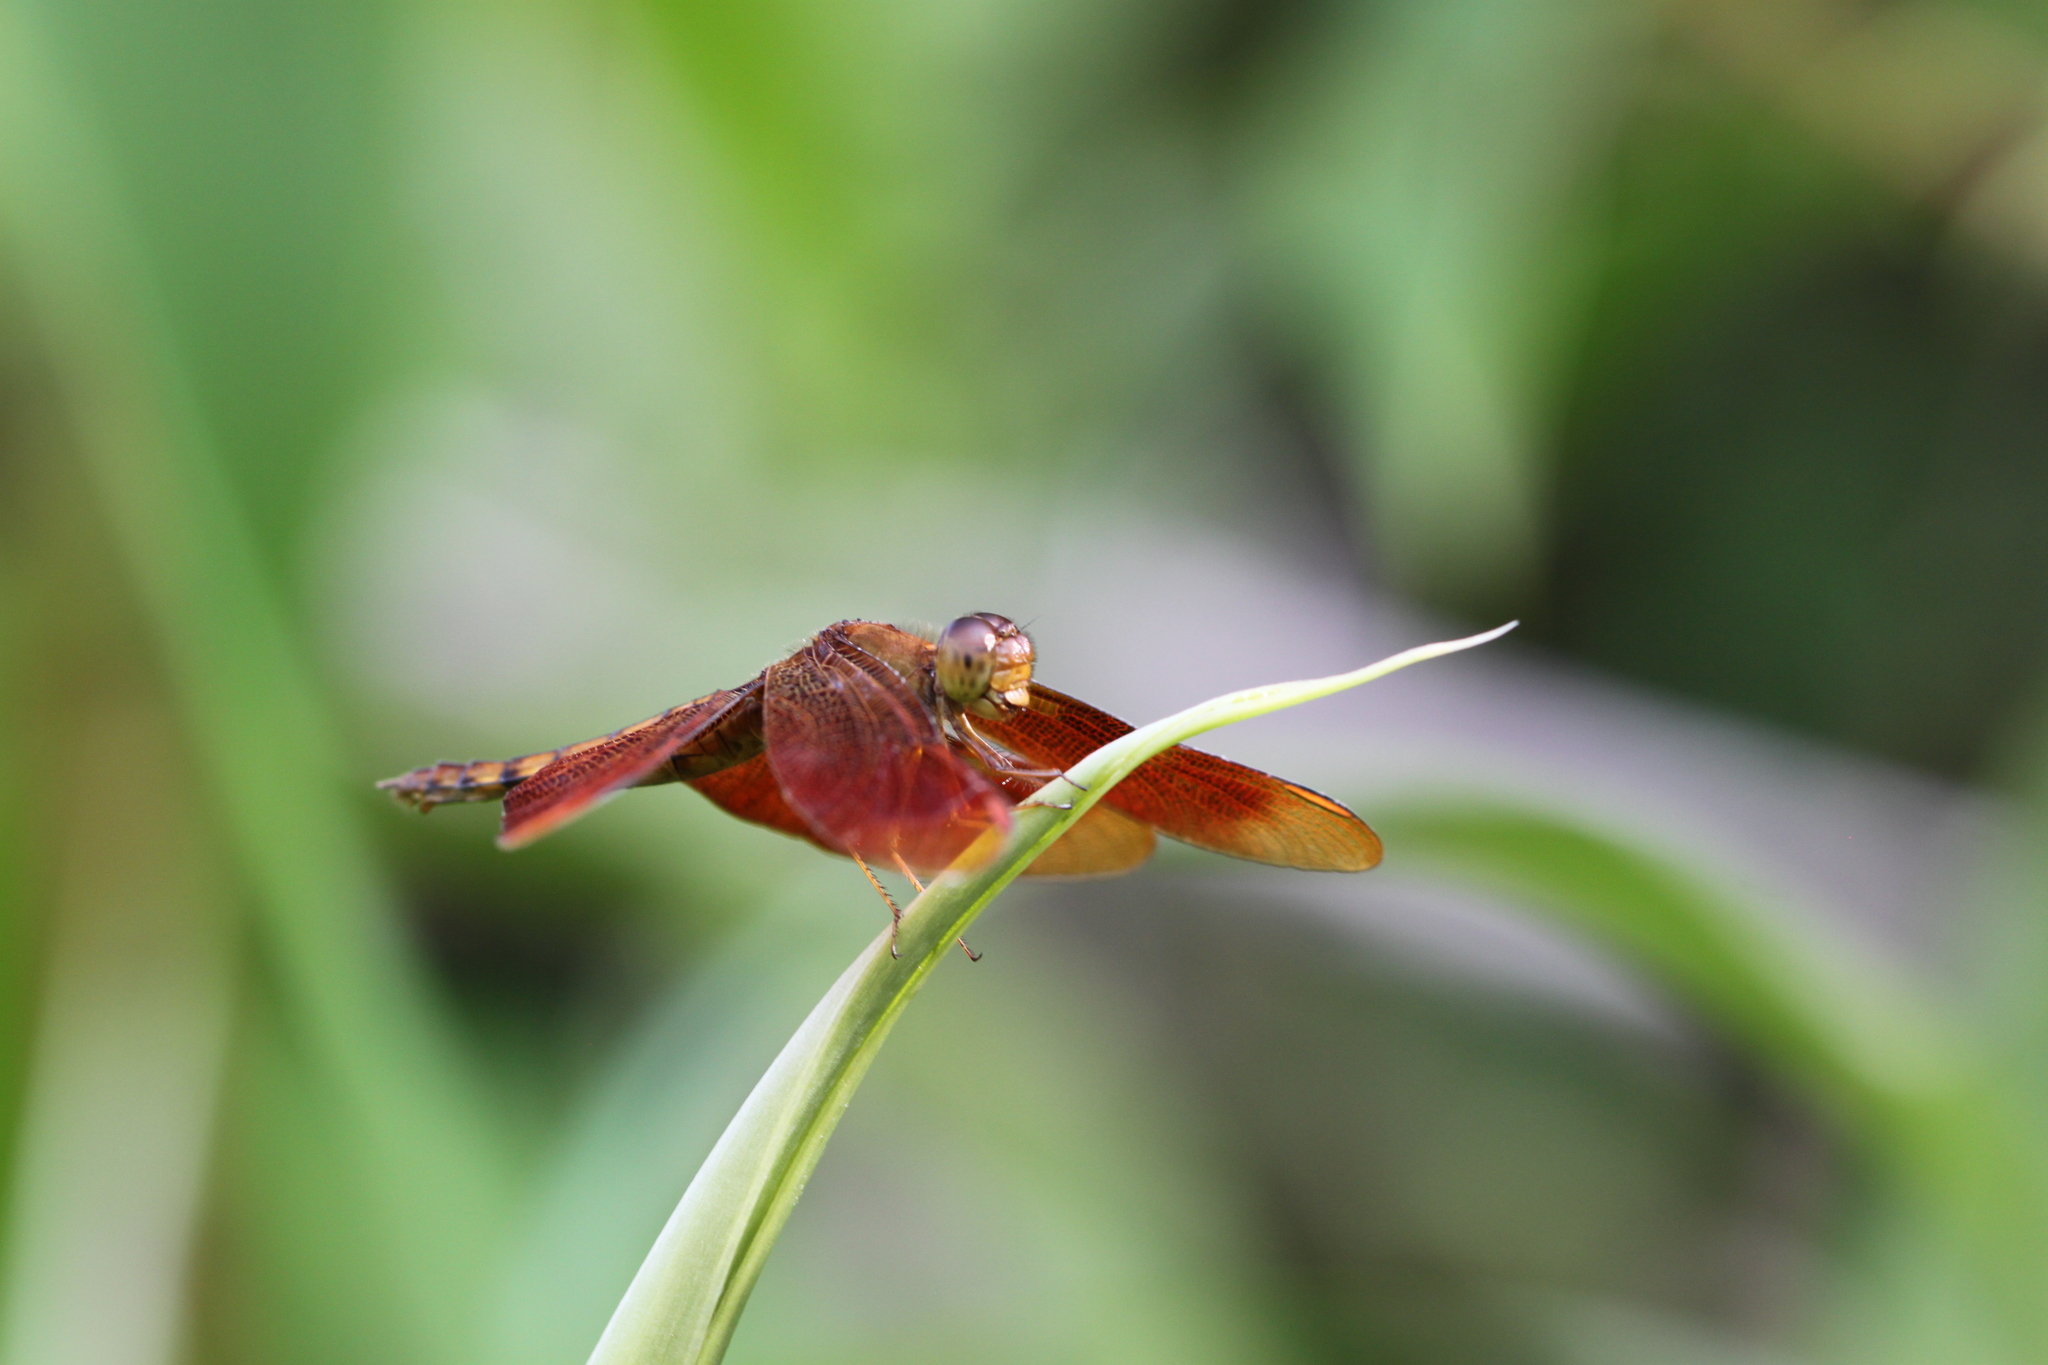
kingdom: Animalia
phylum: Arthropoda
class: Insecta
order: Odonata
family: Libellulidae
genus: Neurothemis
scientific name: Neurothemis fulvia
